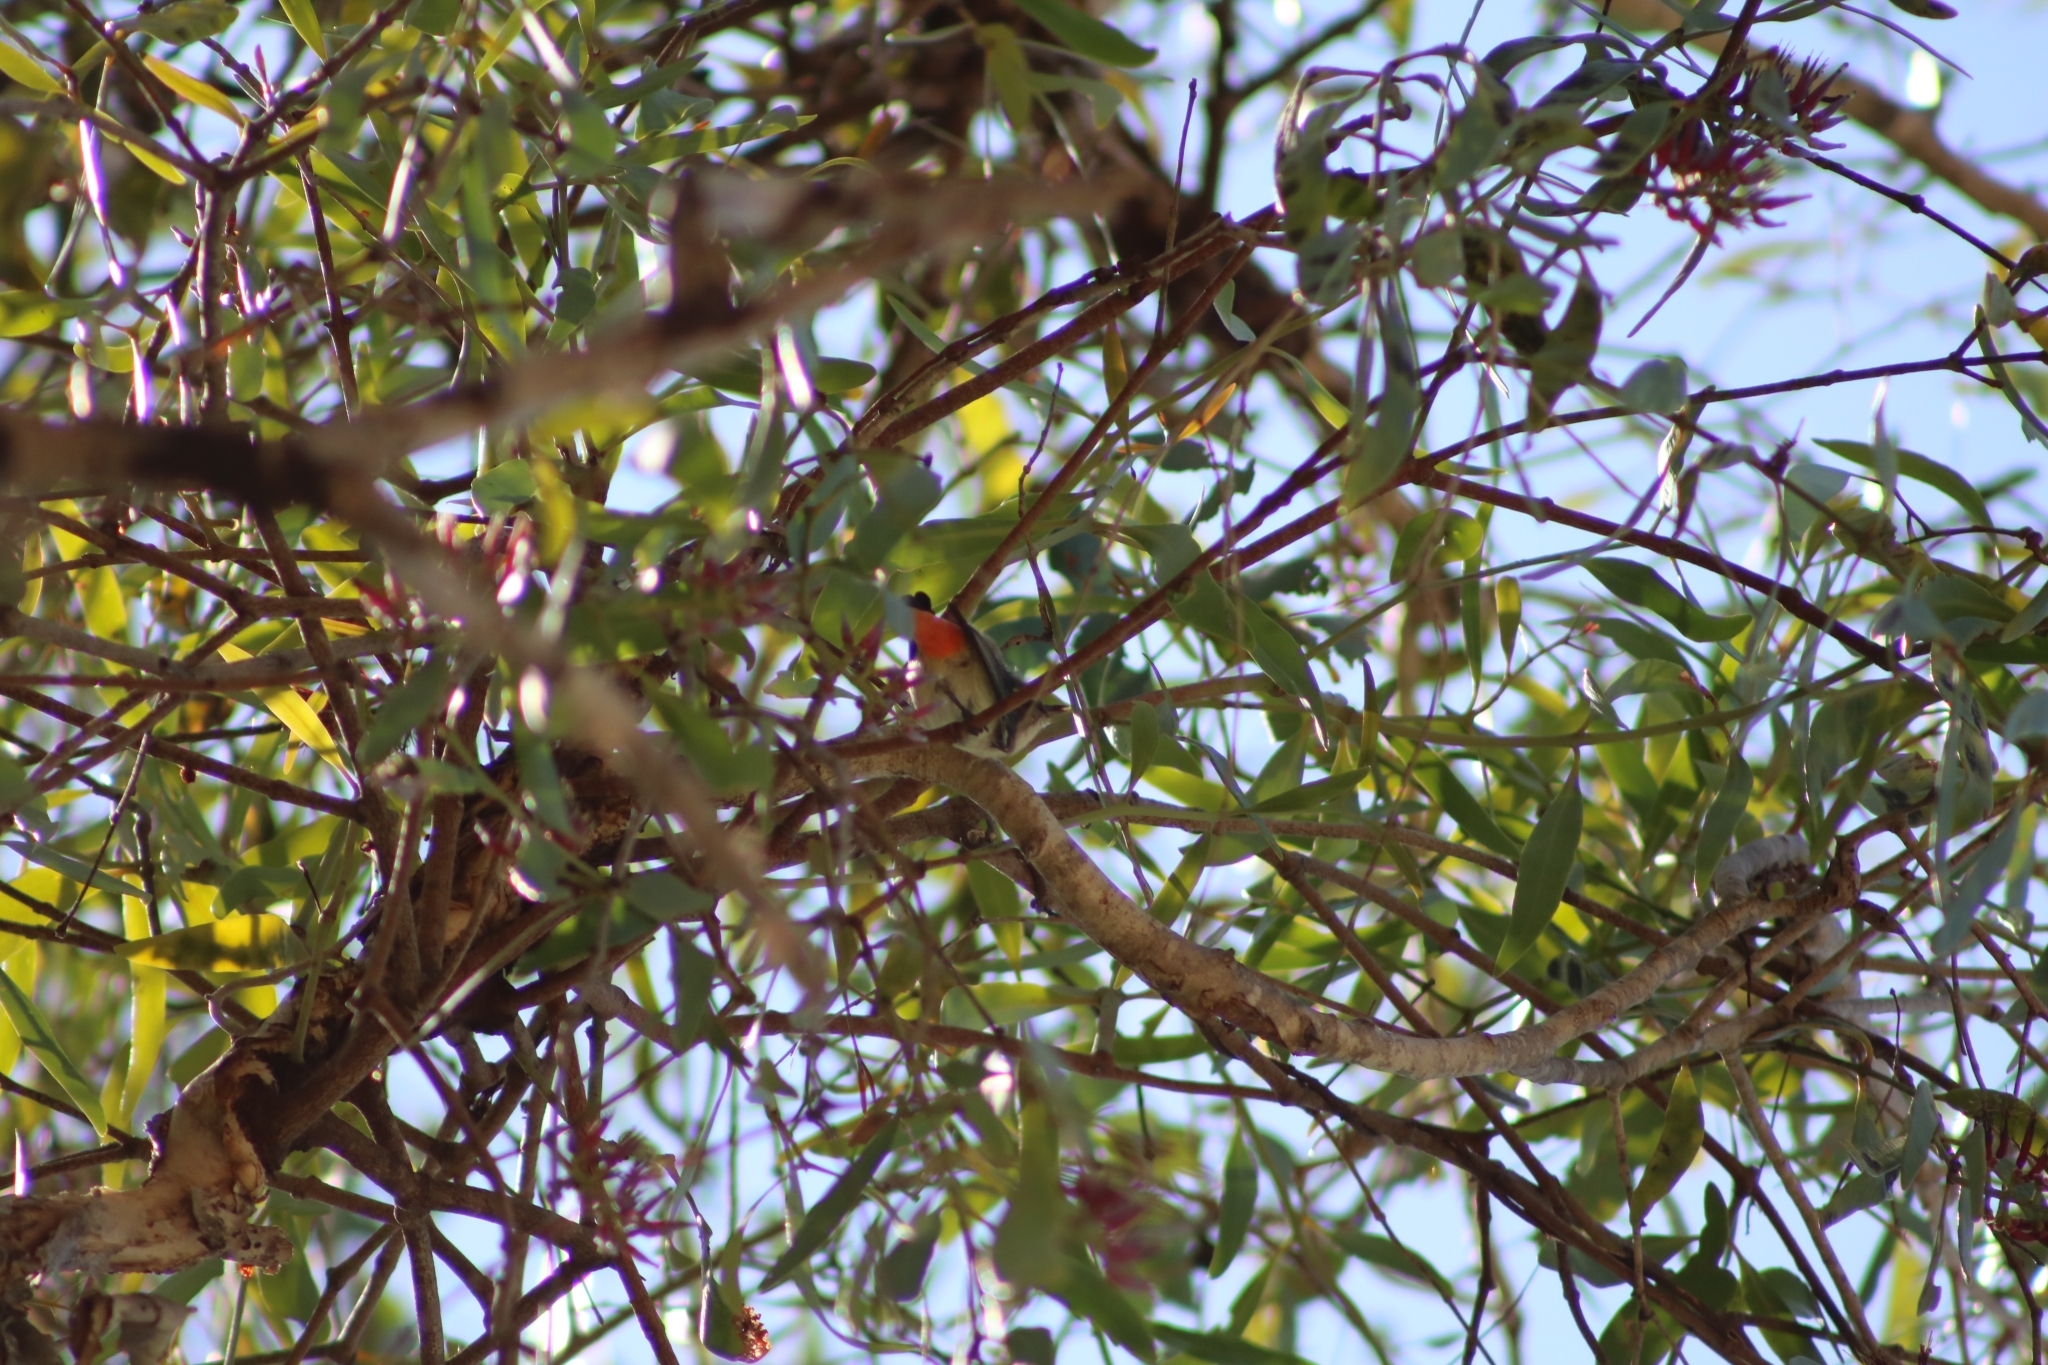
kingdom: Animalia
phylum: Chordata
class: Aves
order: Passeriformes
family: Dicaeidae
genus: Dicaeum
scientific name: Dicaeum hirundinaceum
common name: Mistletoebird
